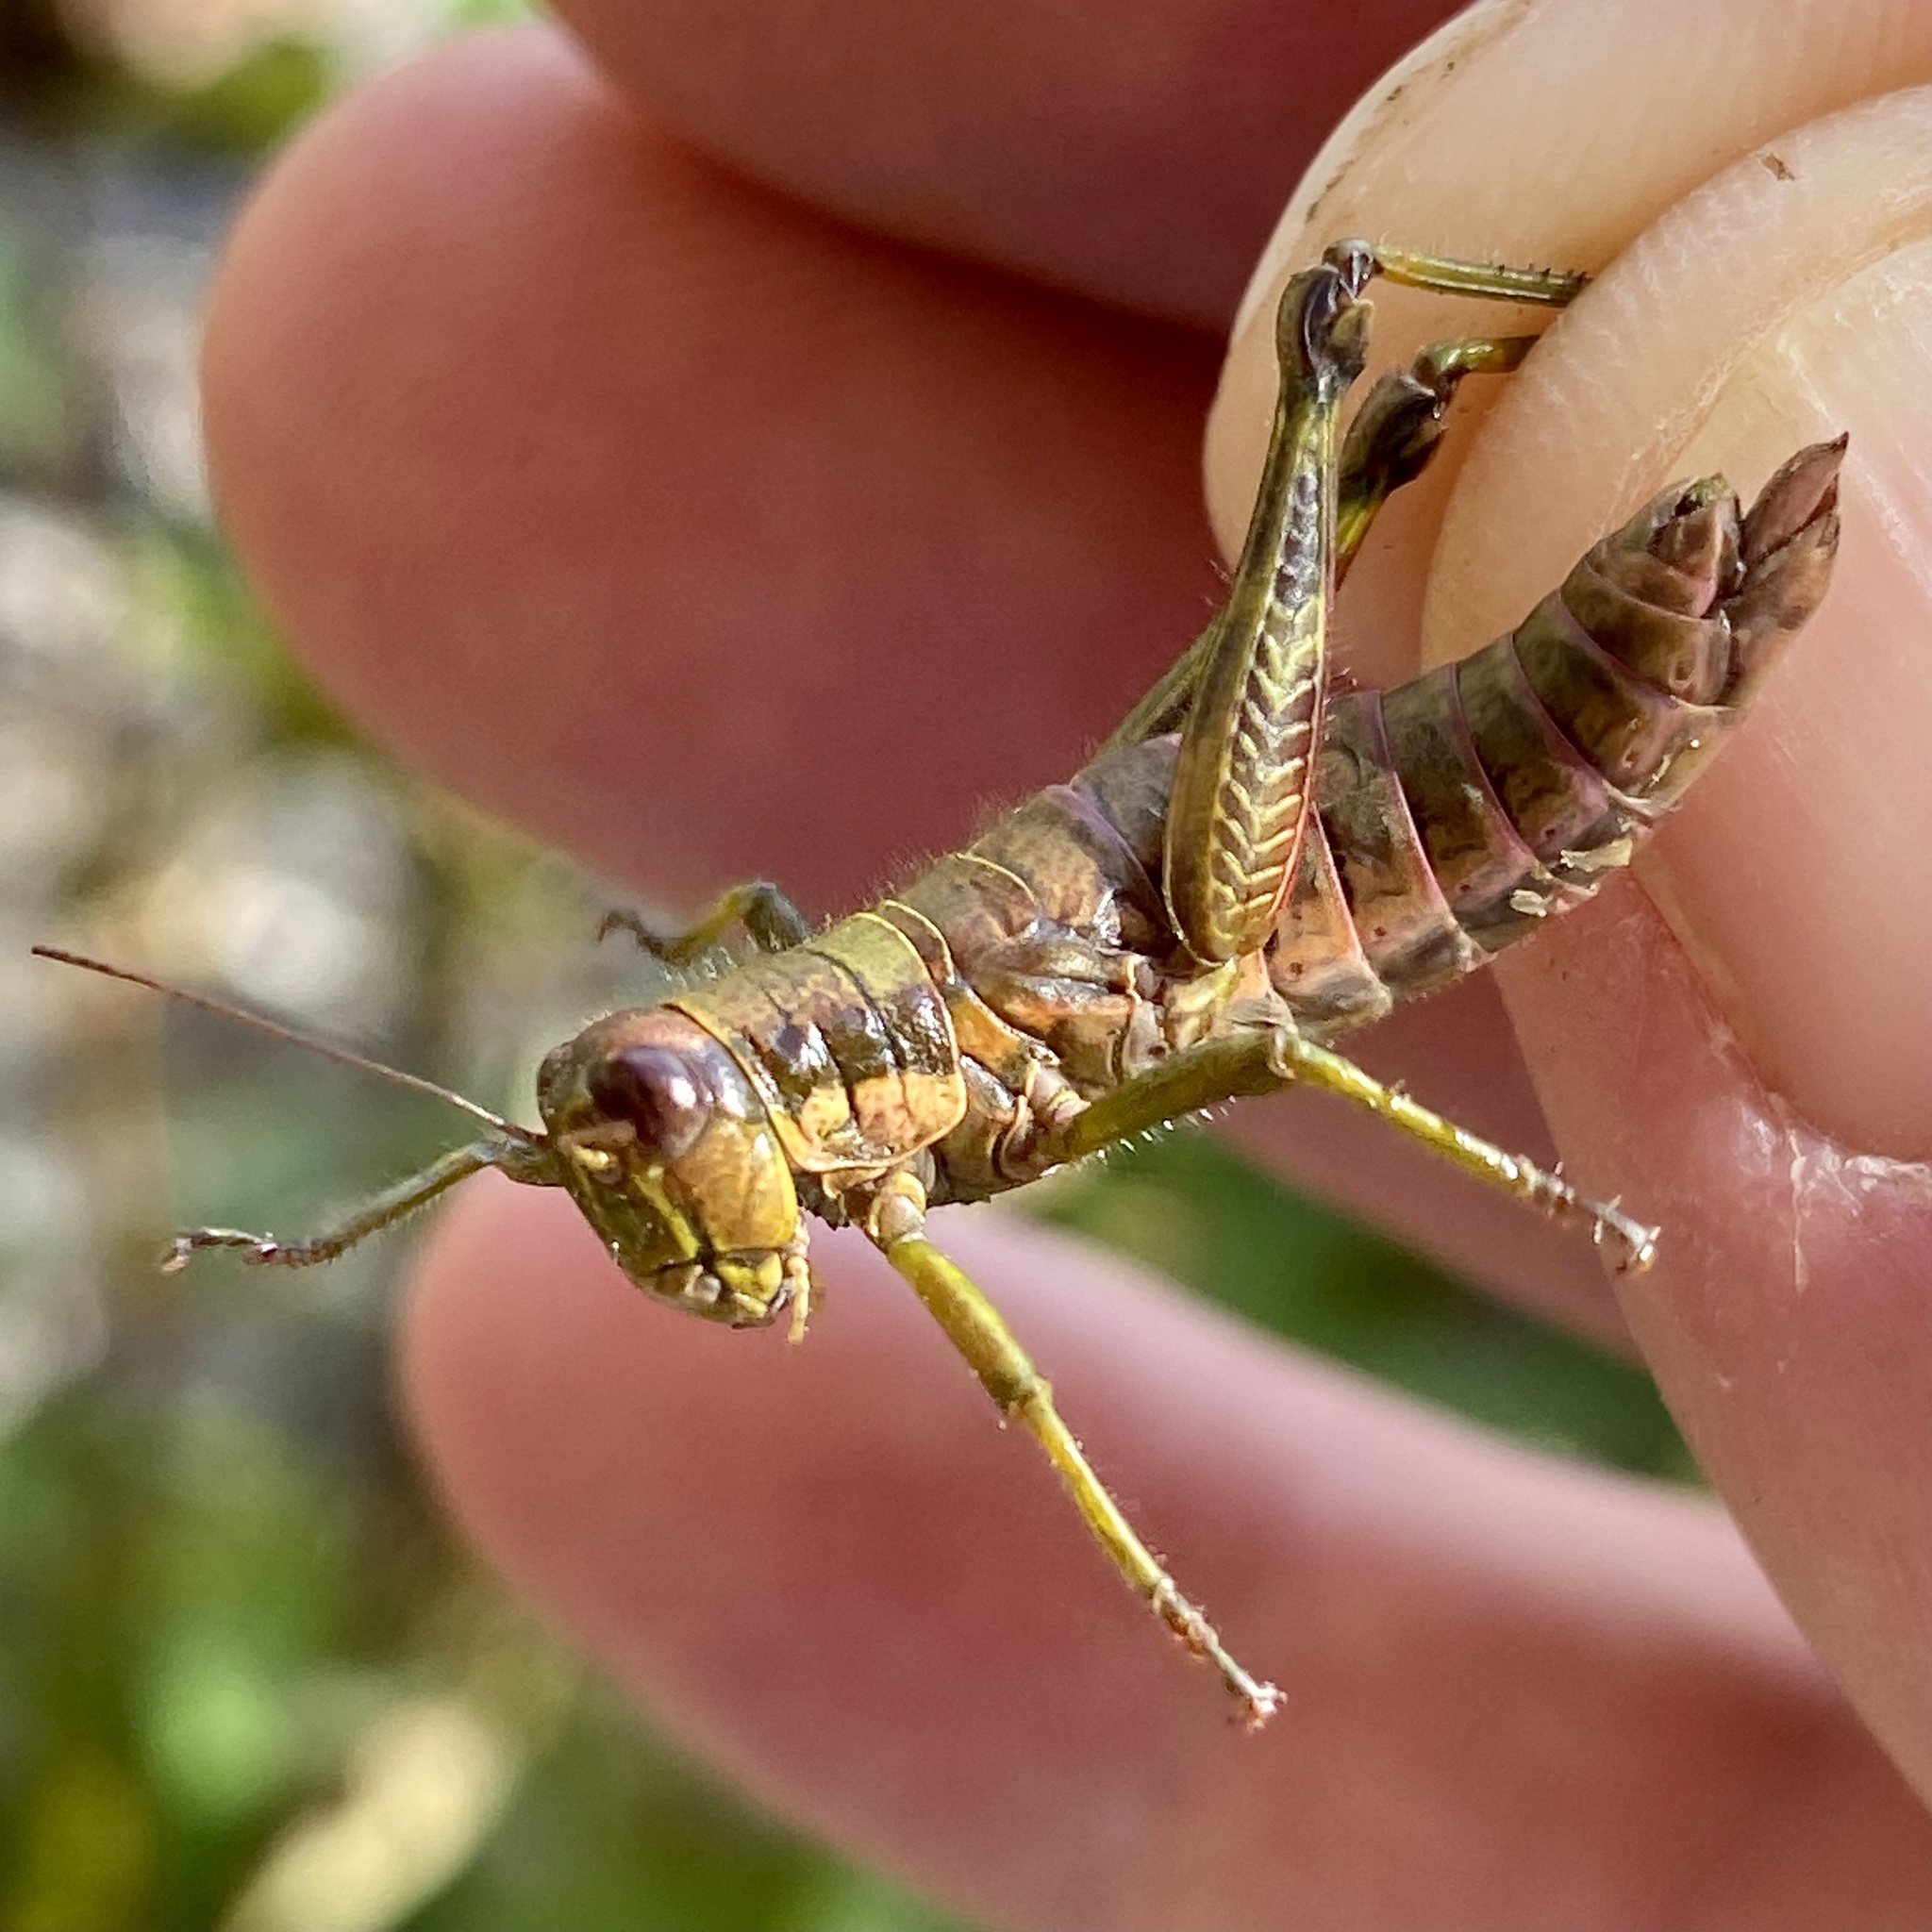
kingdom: Animalia
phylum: Arthropoda
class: Insecta
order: Orthoptera
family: Acrididae
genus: Booneacris
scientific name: Booneacris glacialis
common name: Wingless mountain grasshopper
